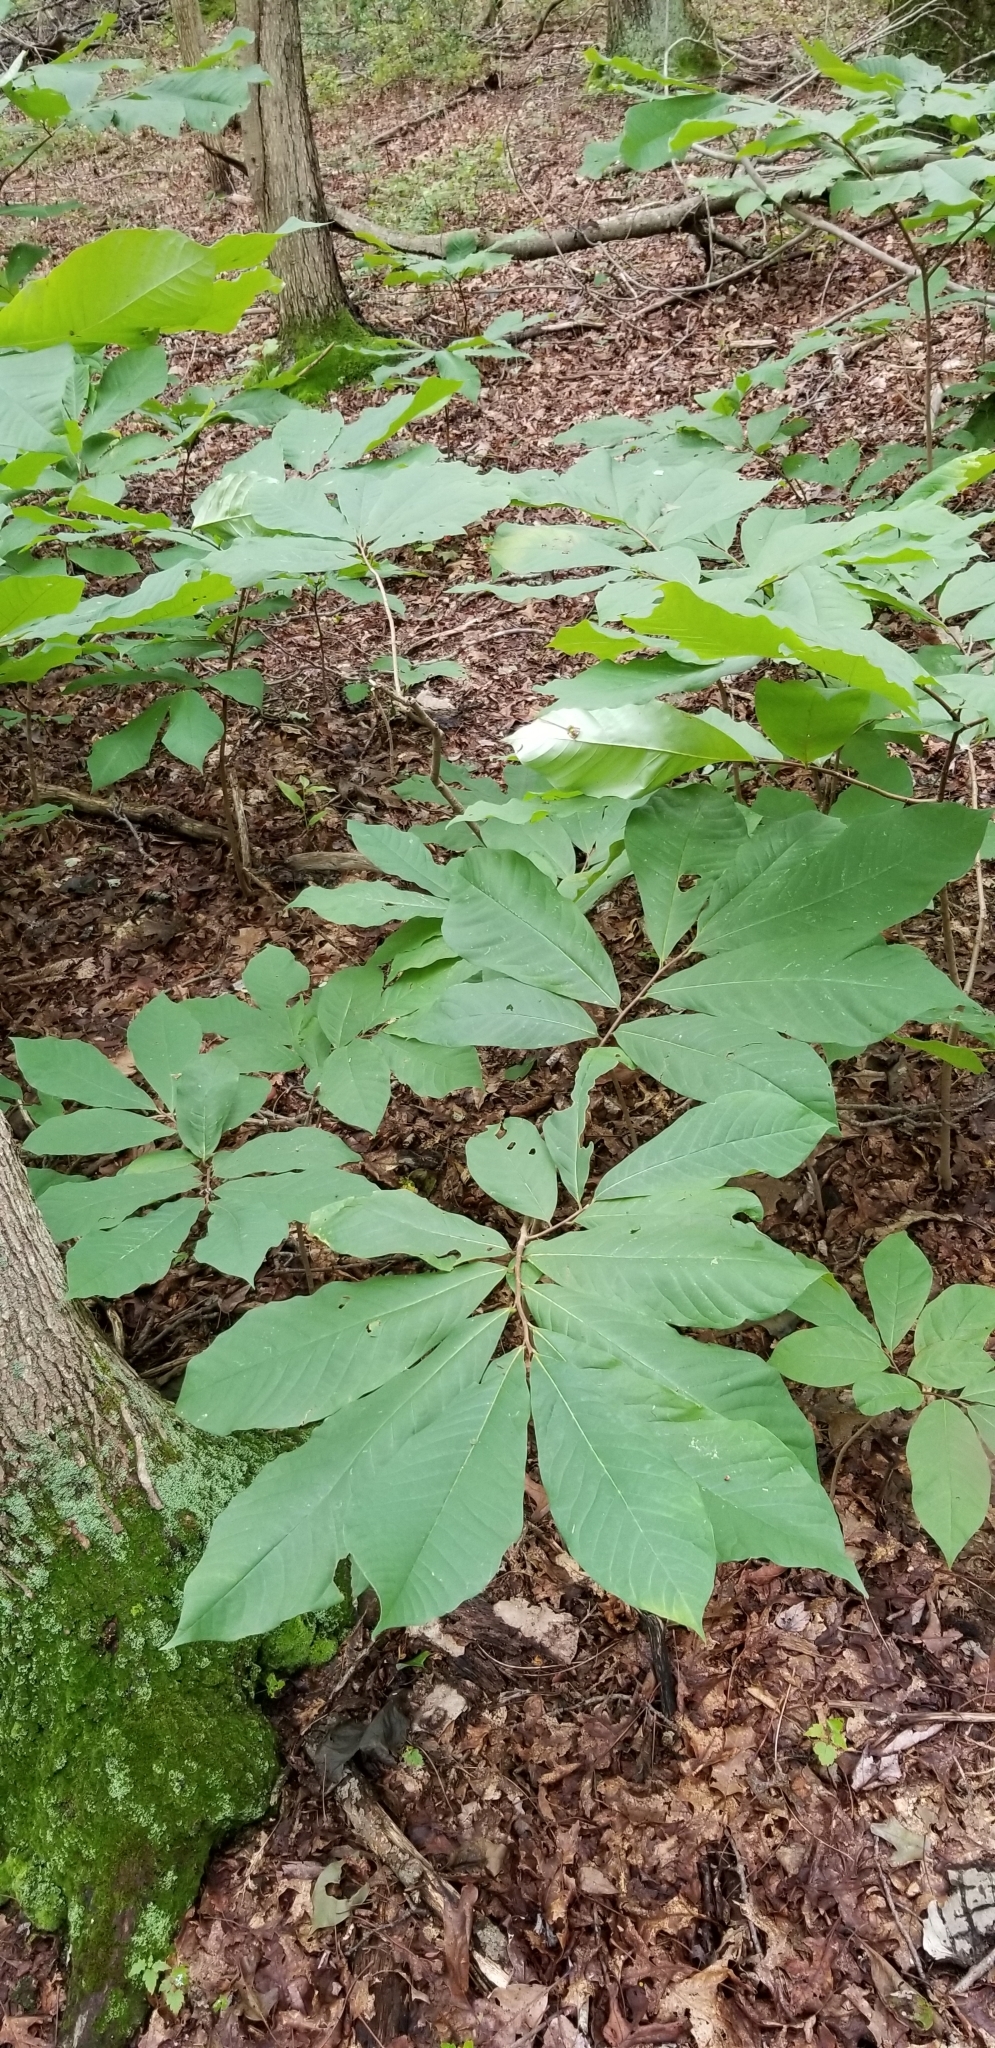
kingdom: Plantae
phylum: Tracheophyta
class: Magnoliopsida
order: Magnoliales
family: Annonaceae
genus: Asimina
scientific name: Asimina triloba
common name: Dog-banana
